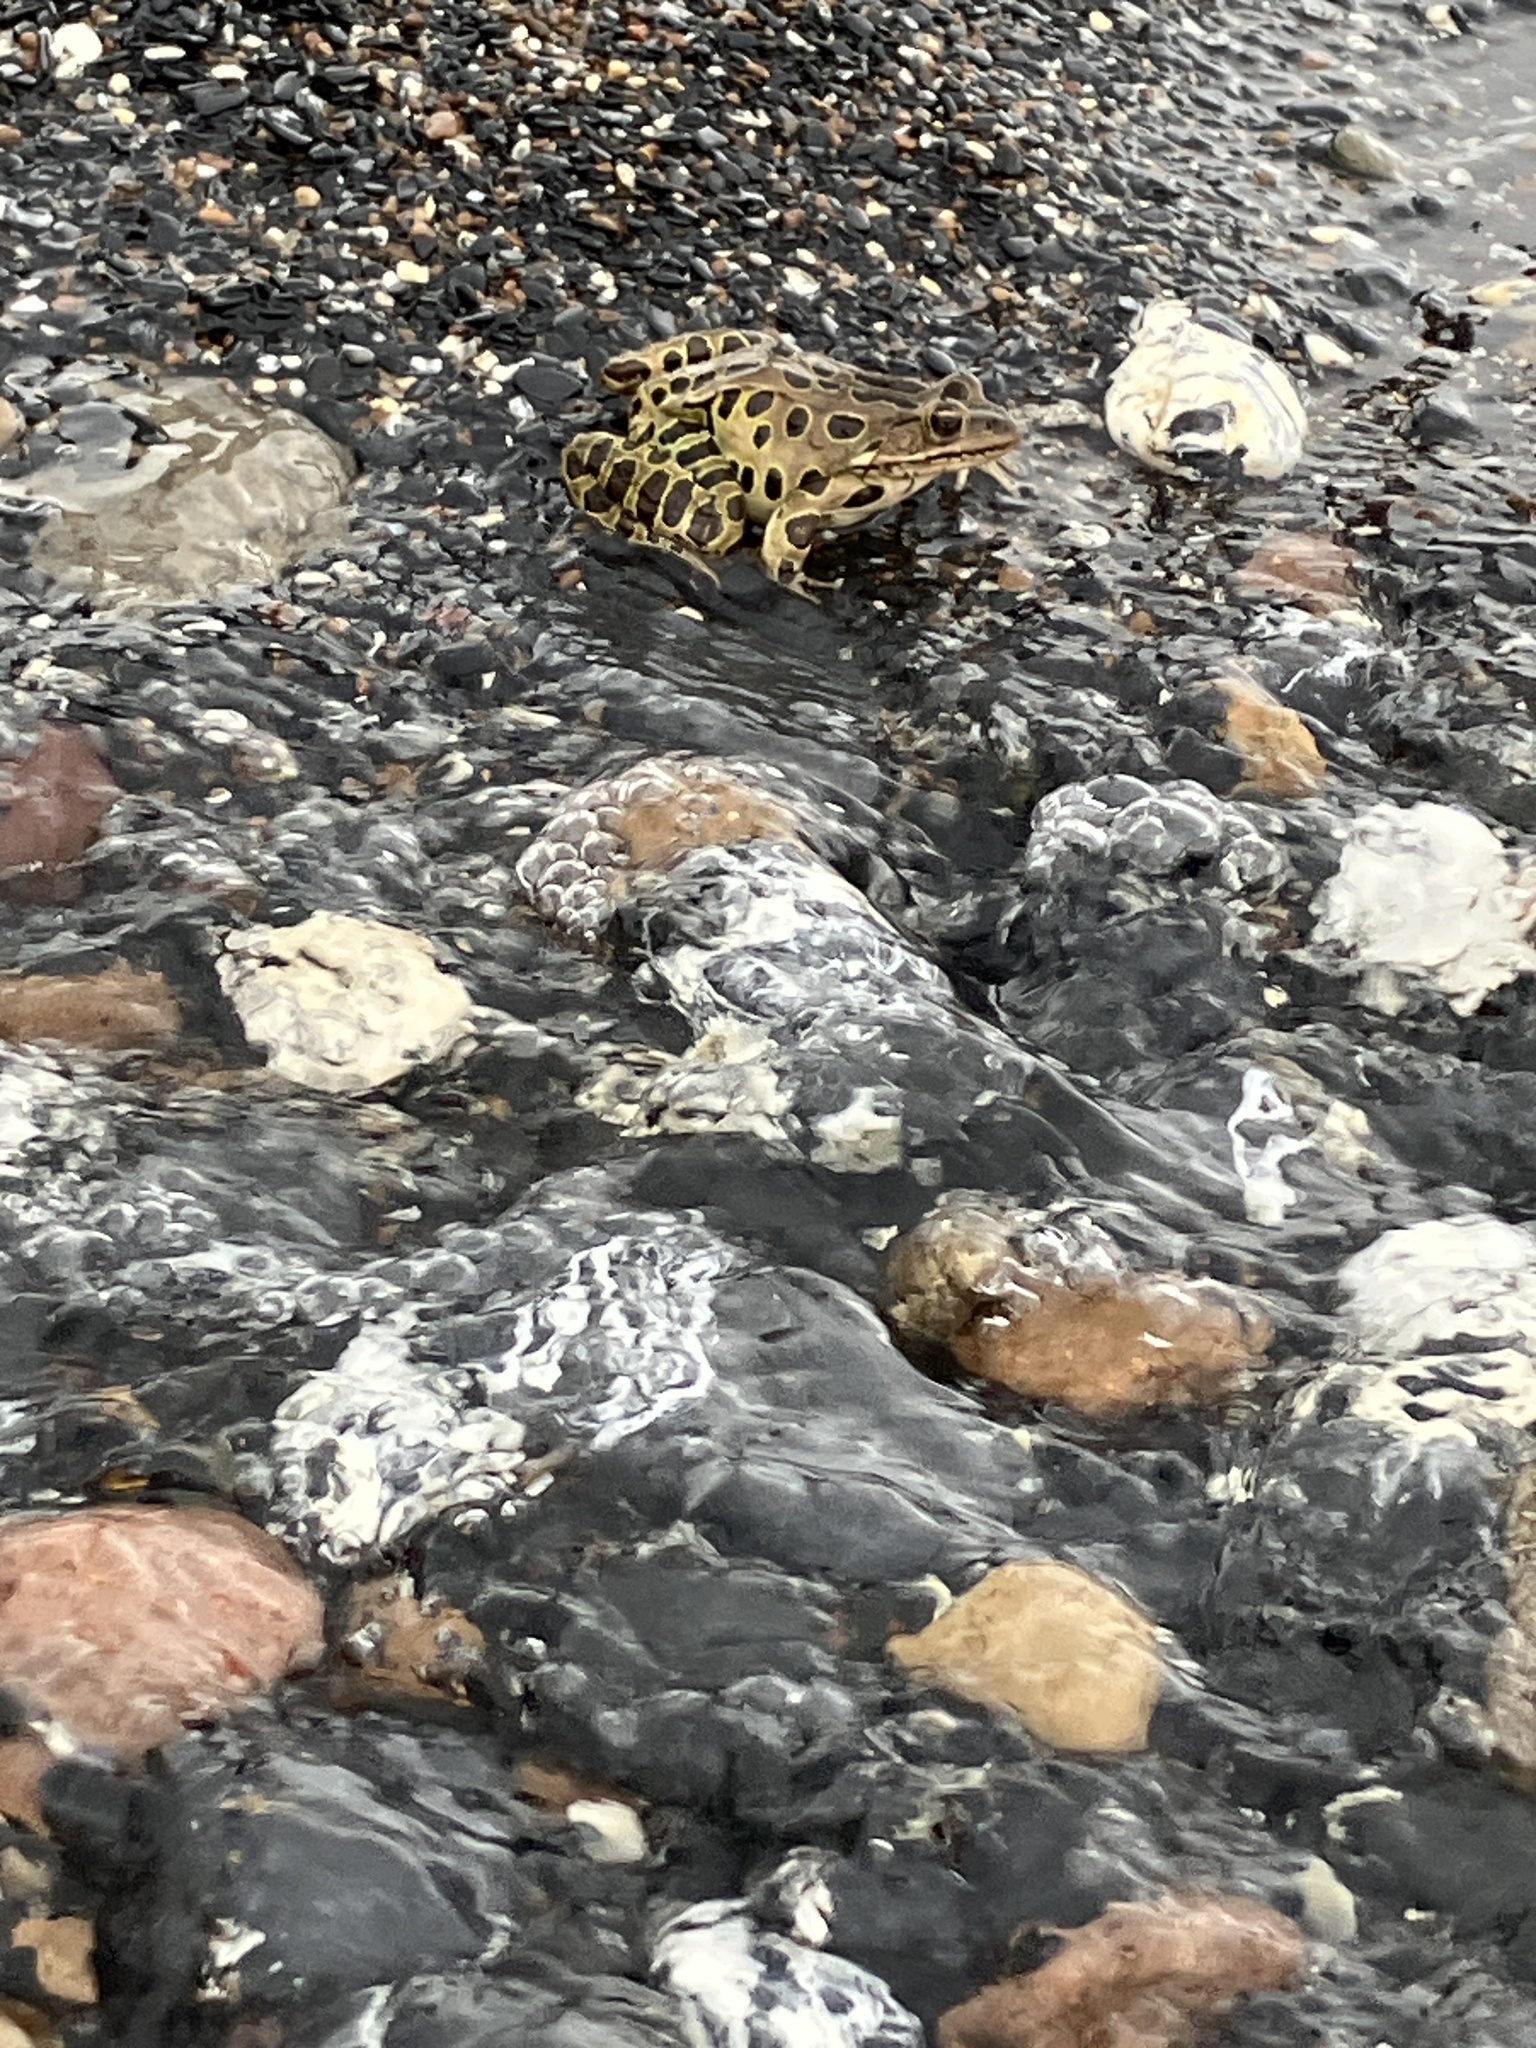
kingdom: Animalia
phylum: Chordata
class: Amphibia
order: Anura
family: Ranidae
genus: Lithobates
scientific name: Lithobates pipiens
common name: Northern leopard frog
